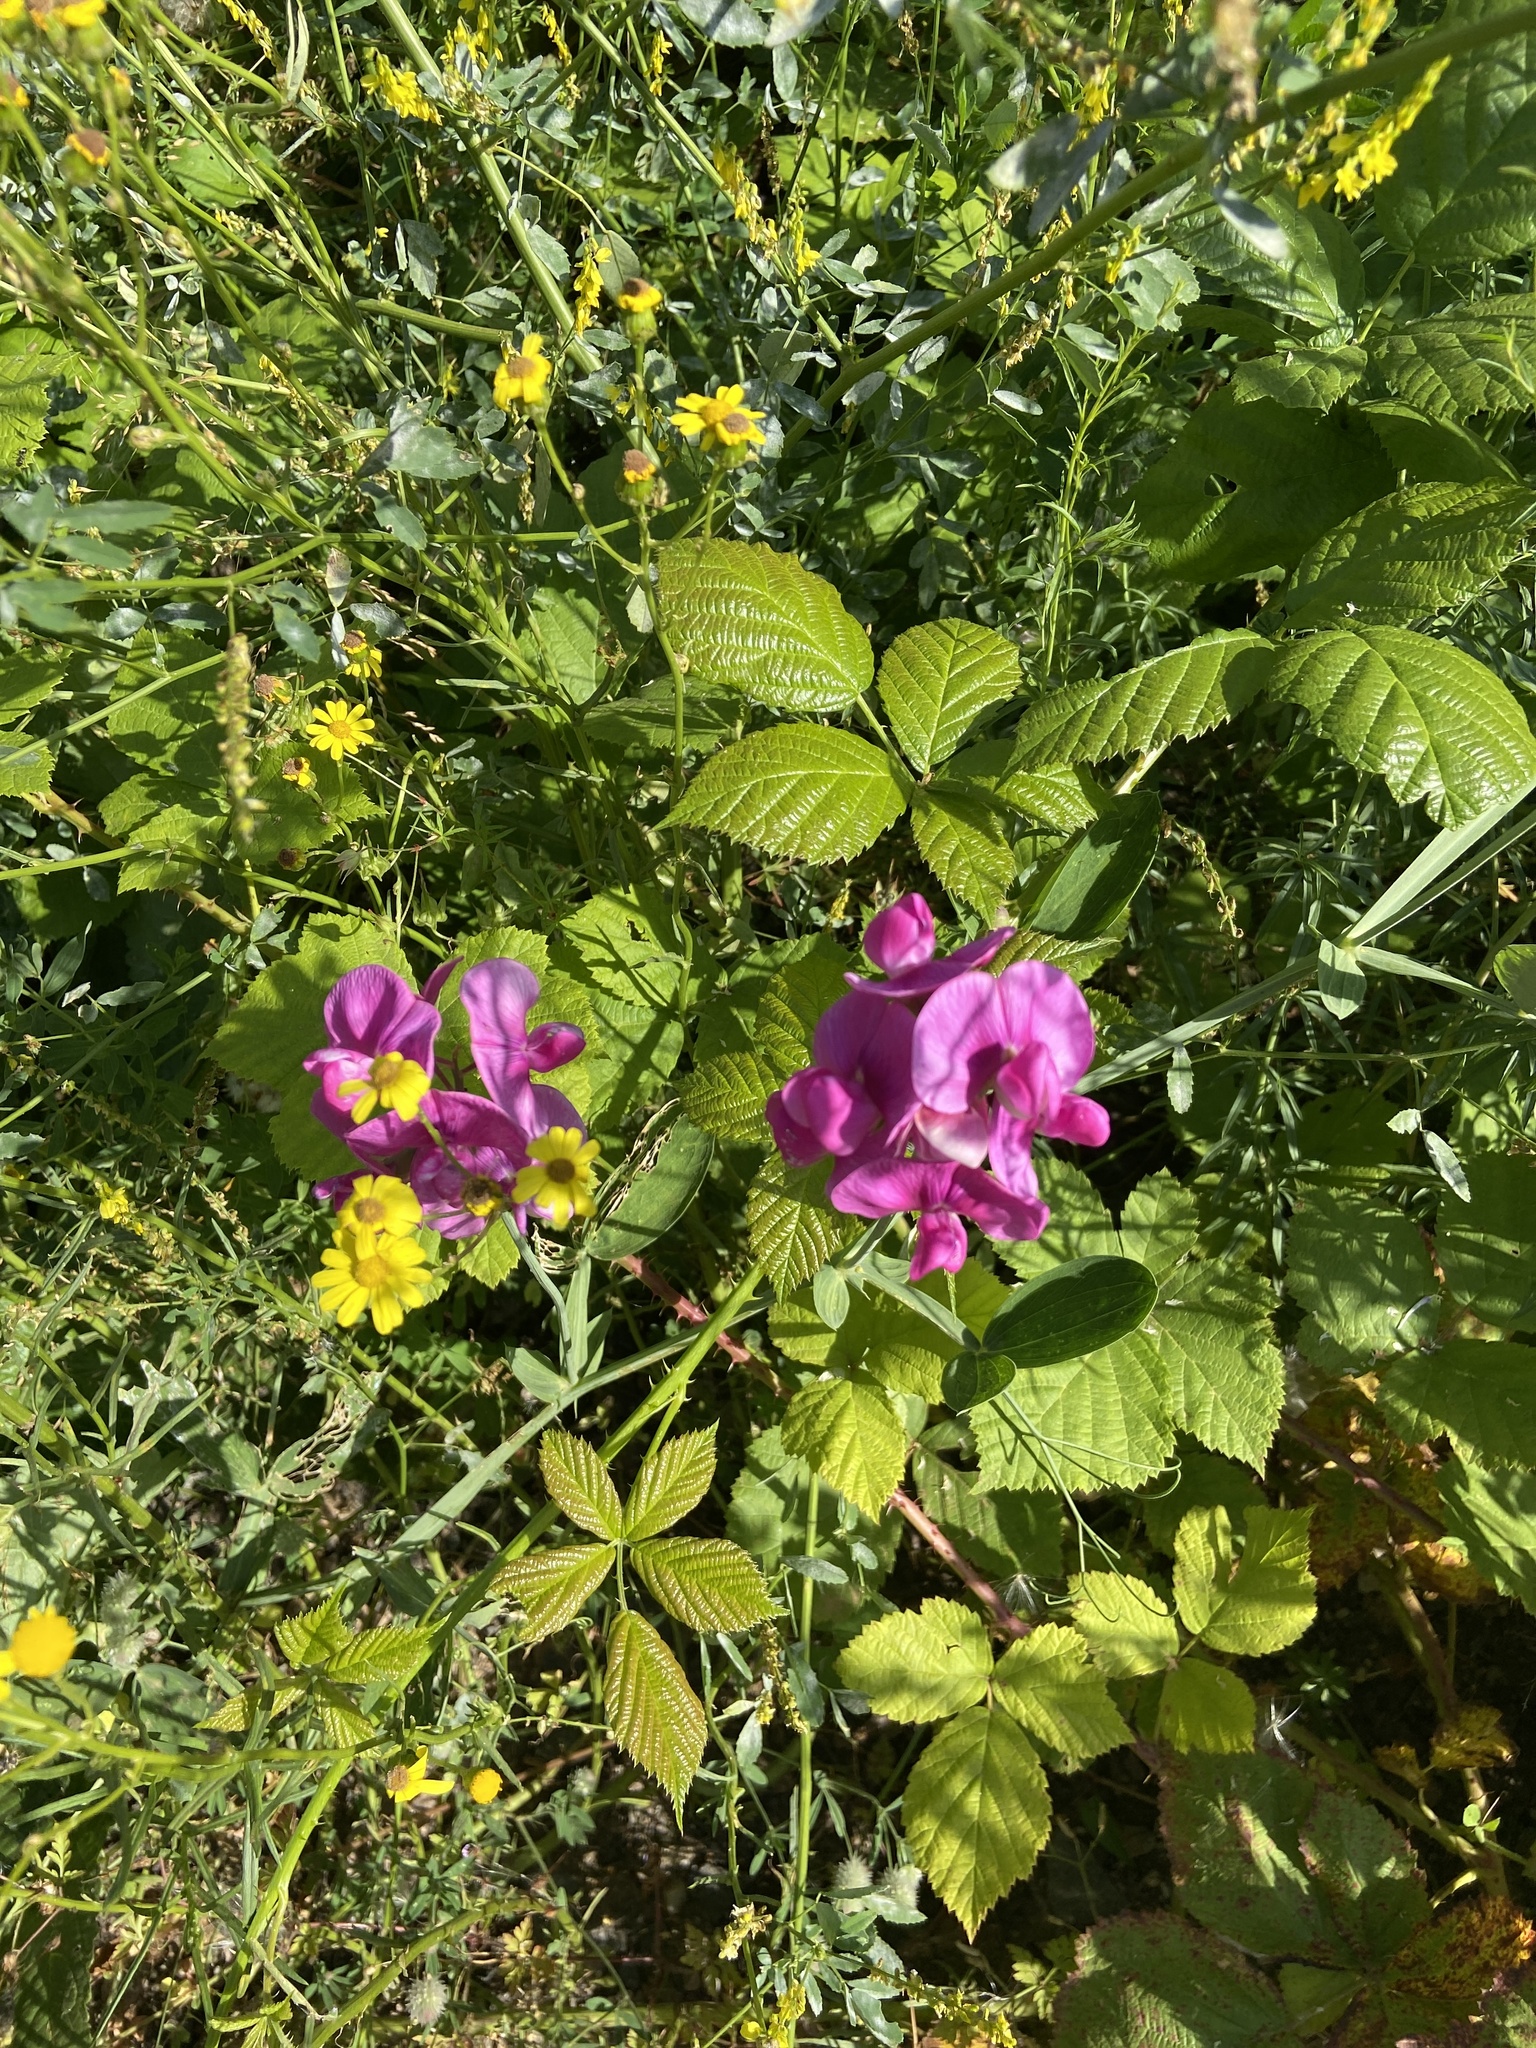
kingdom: Plantae
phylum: Tracheophyta
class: Magnoliopsida
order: Fabales
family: Fabaceae
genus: Lathyrus
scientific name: Lathyrus latifolius
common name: Perennial pea
